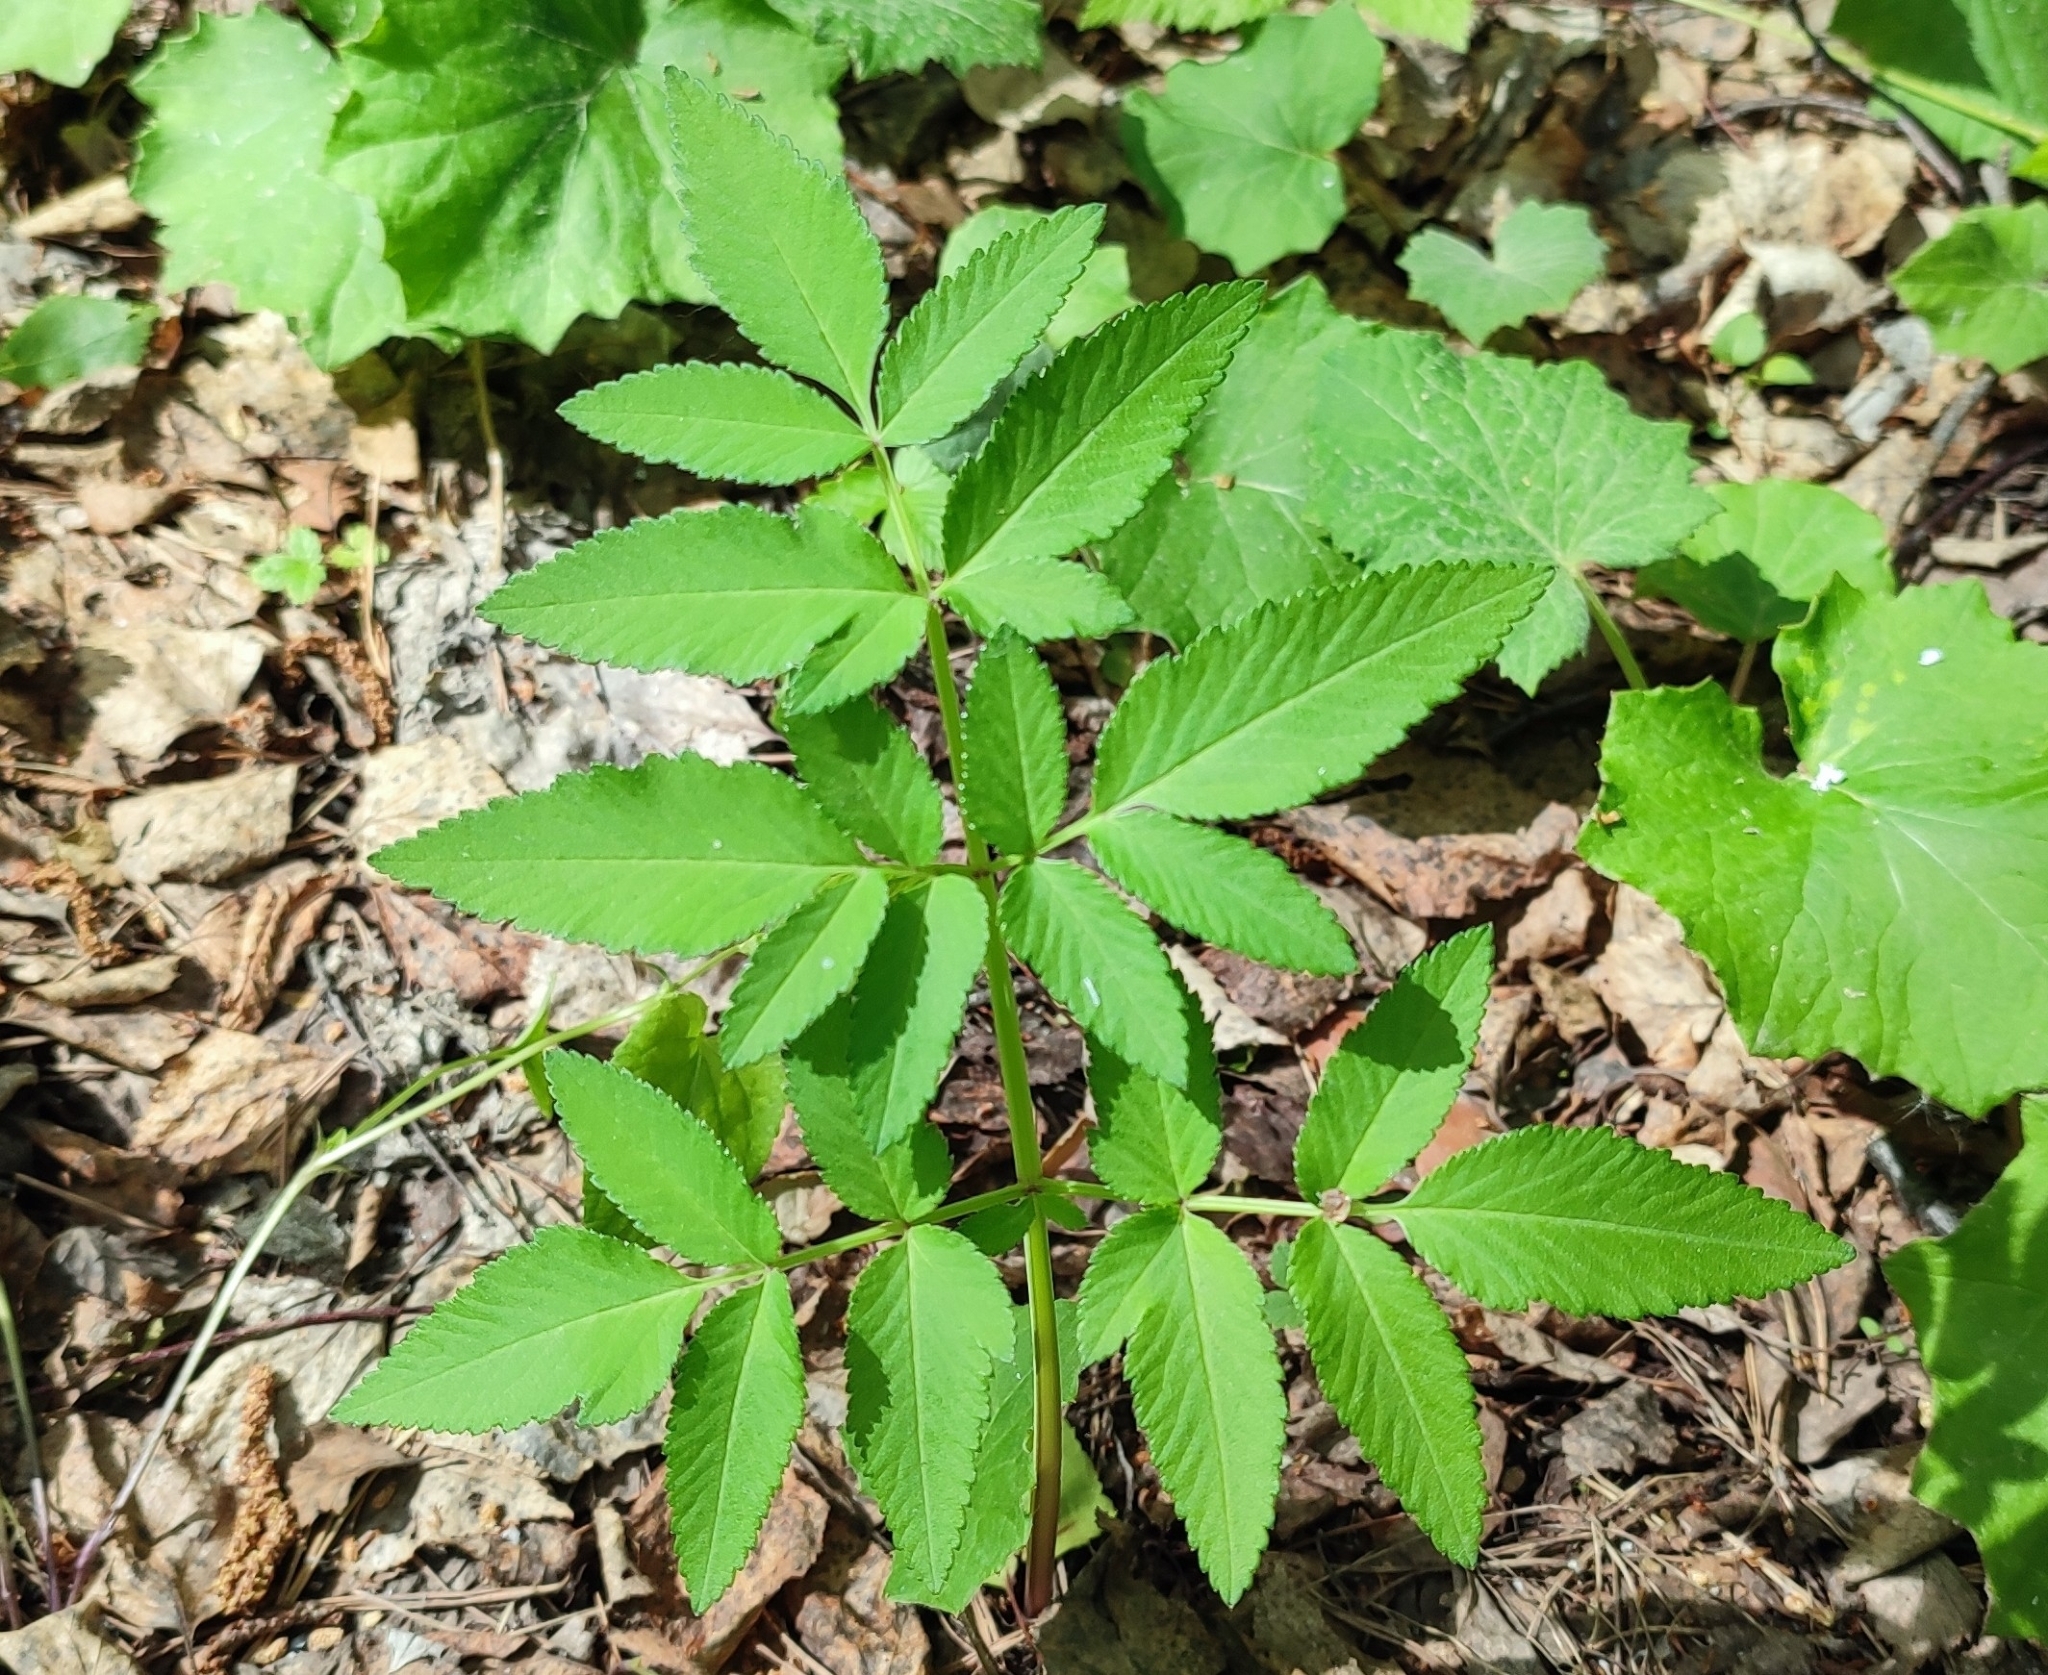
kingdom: Plantae
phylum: Tracheophyta
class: Magnoliopsida
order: Apiales
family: Apiaceae
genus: Angelica
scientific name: Angelica sylvestris
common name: Wild angelica
